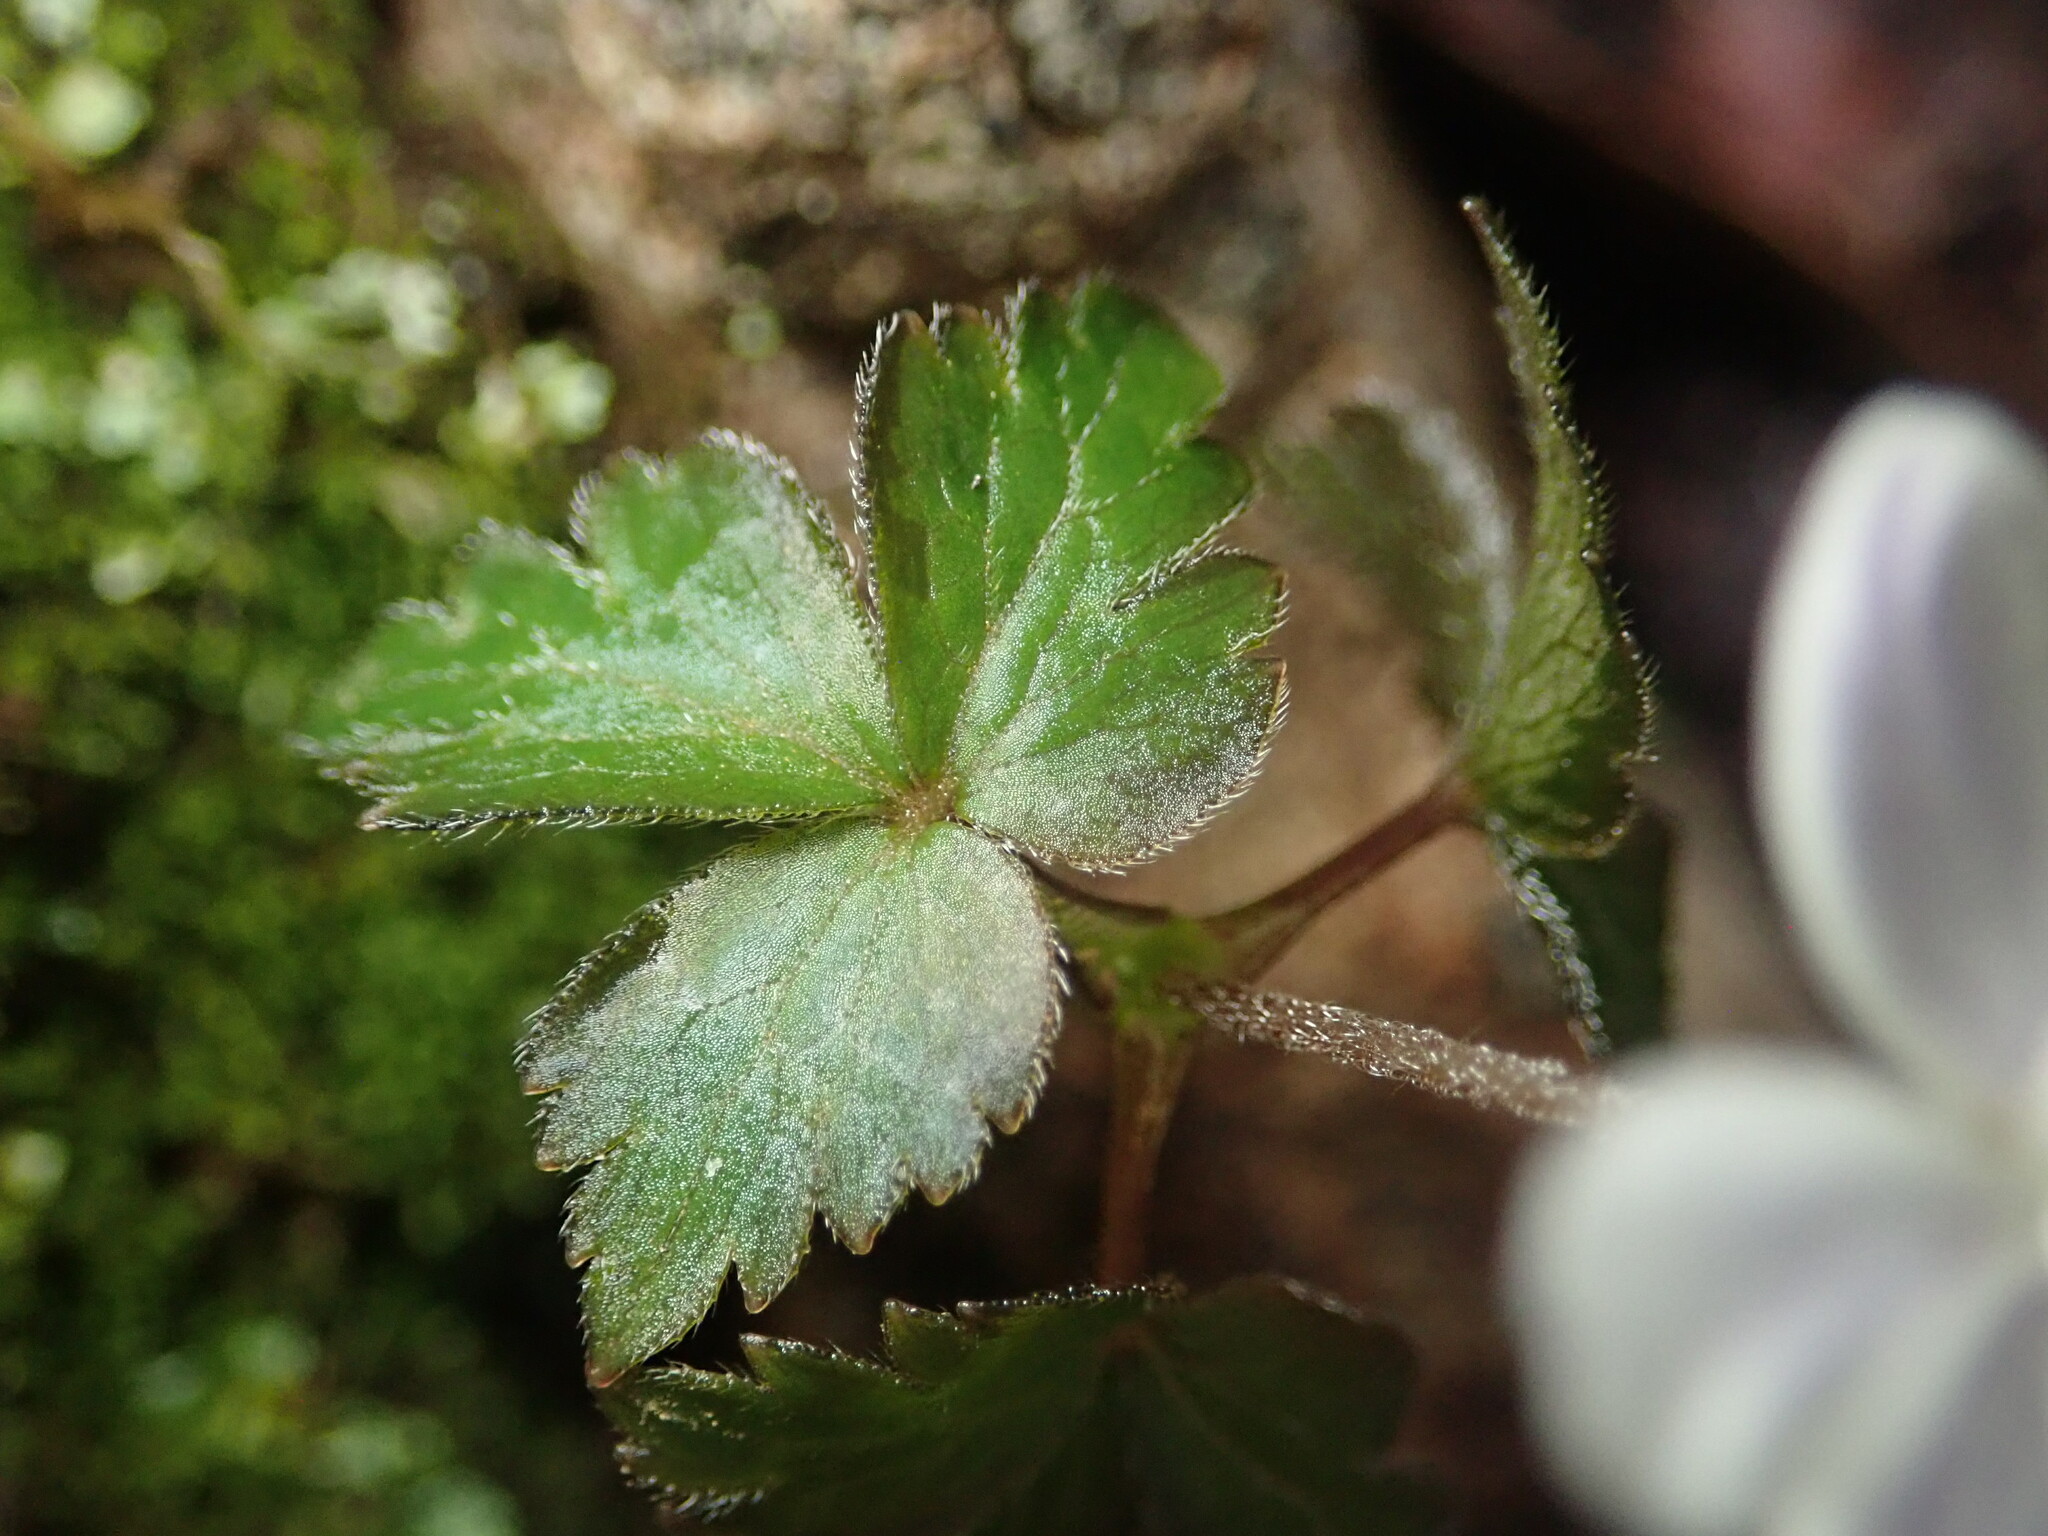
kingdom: Plantae
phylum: Tracheophyta
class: Magnoliopsida
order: Ranunculales
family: Ranunculaceae
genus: Anemone
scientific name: Anemone
